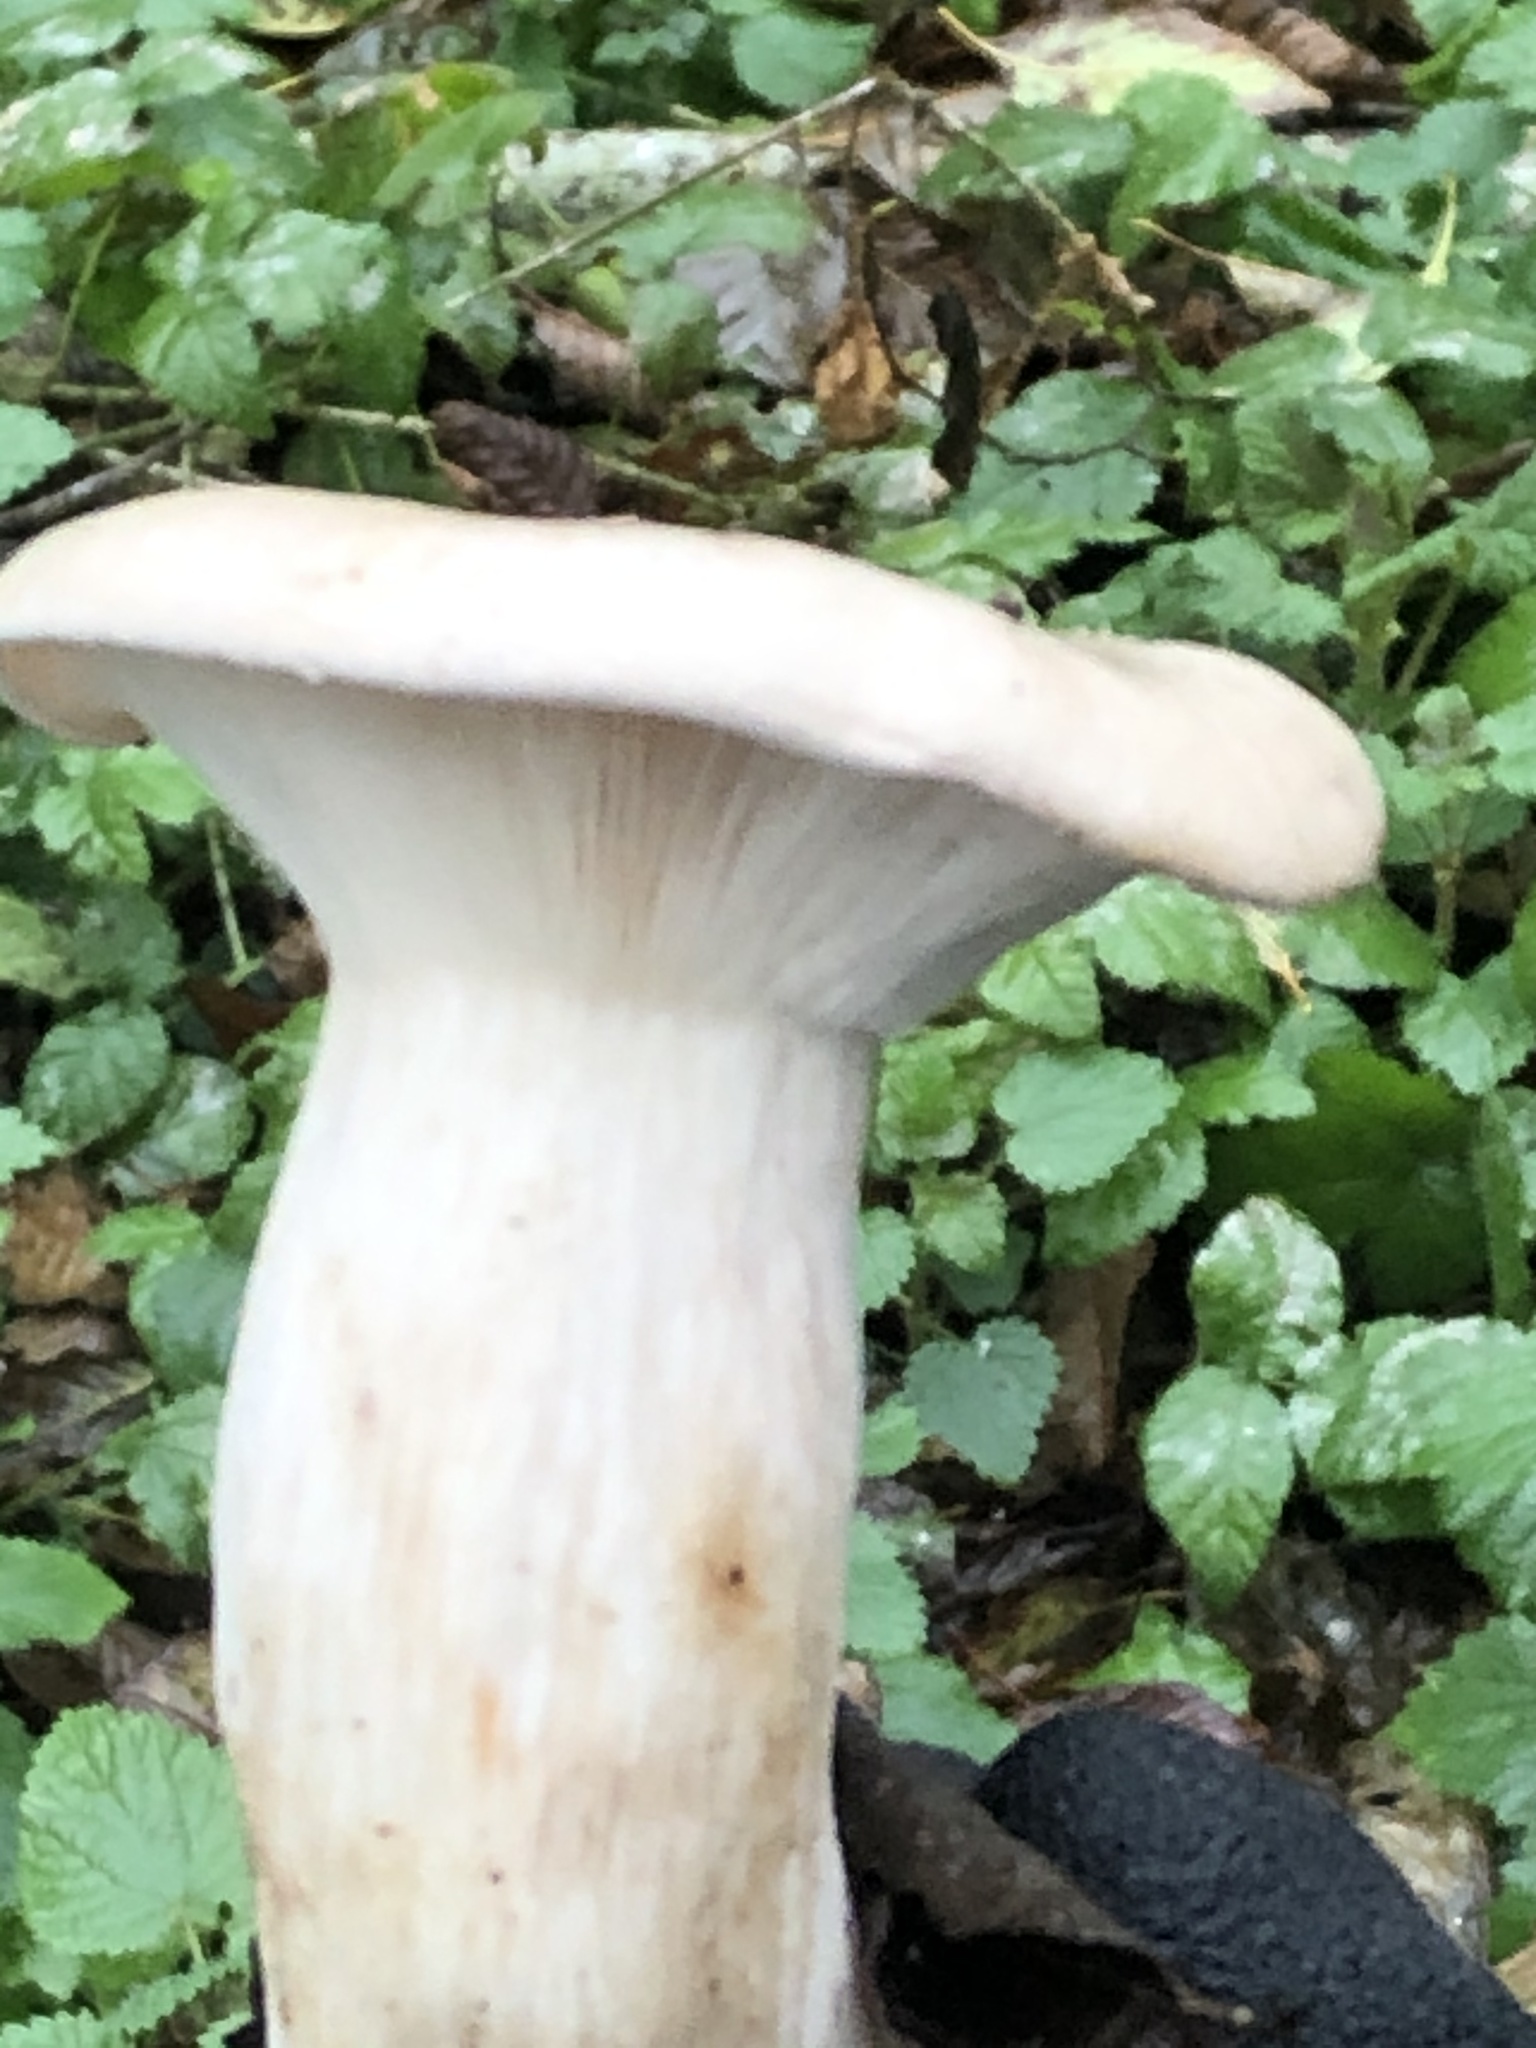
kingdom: Fungi
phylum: Basidiomycota
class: Agaricomycetes
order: Agaricales
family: Tricholomataceae
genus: Clitocybe
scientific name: Clitocybe nebularis
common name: Clouded agaric
